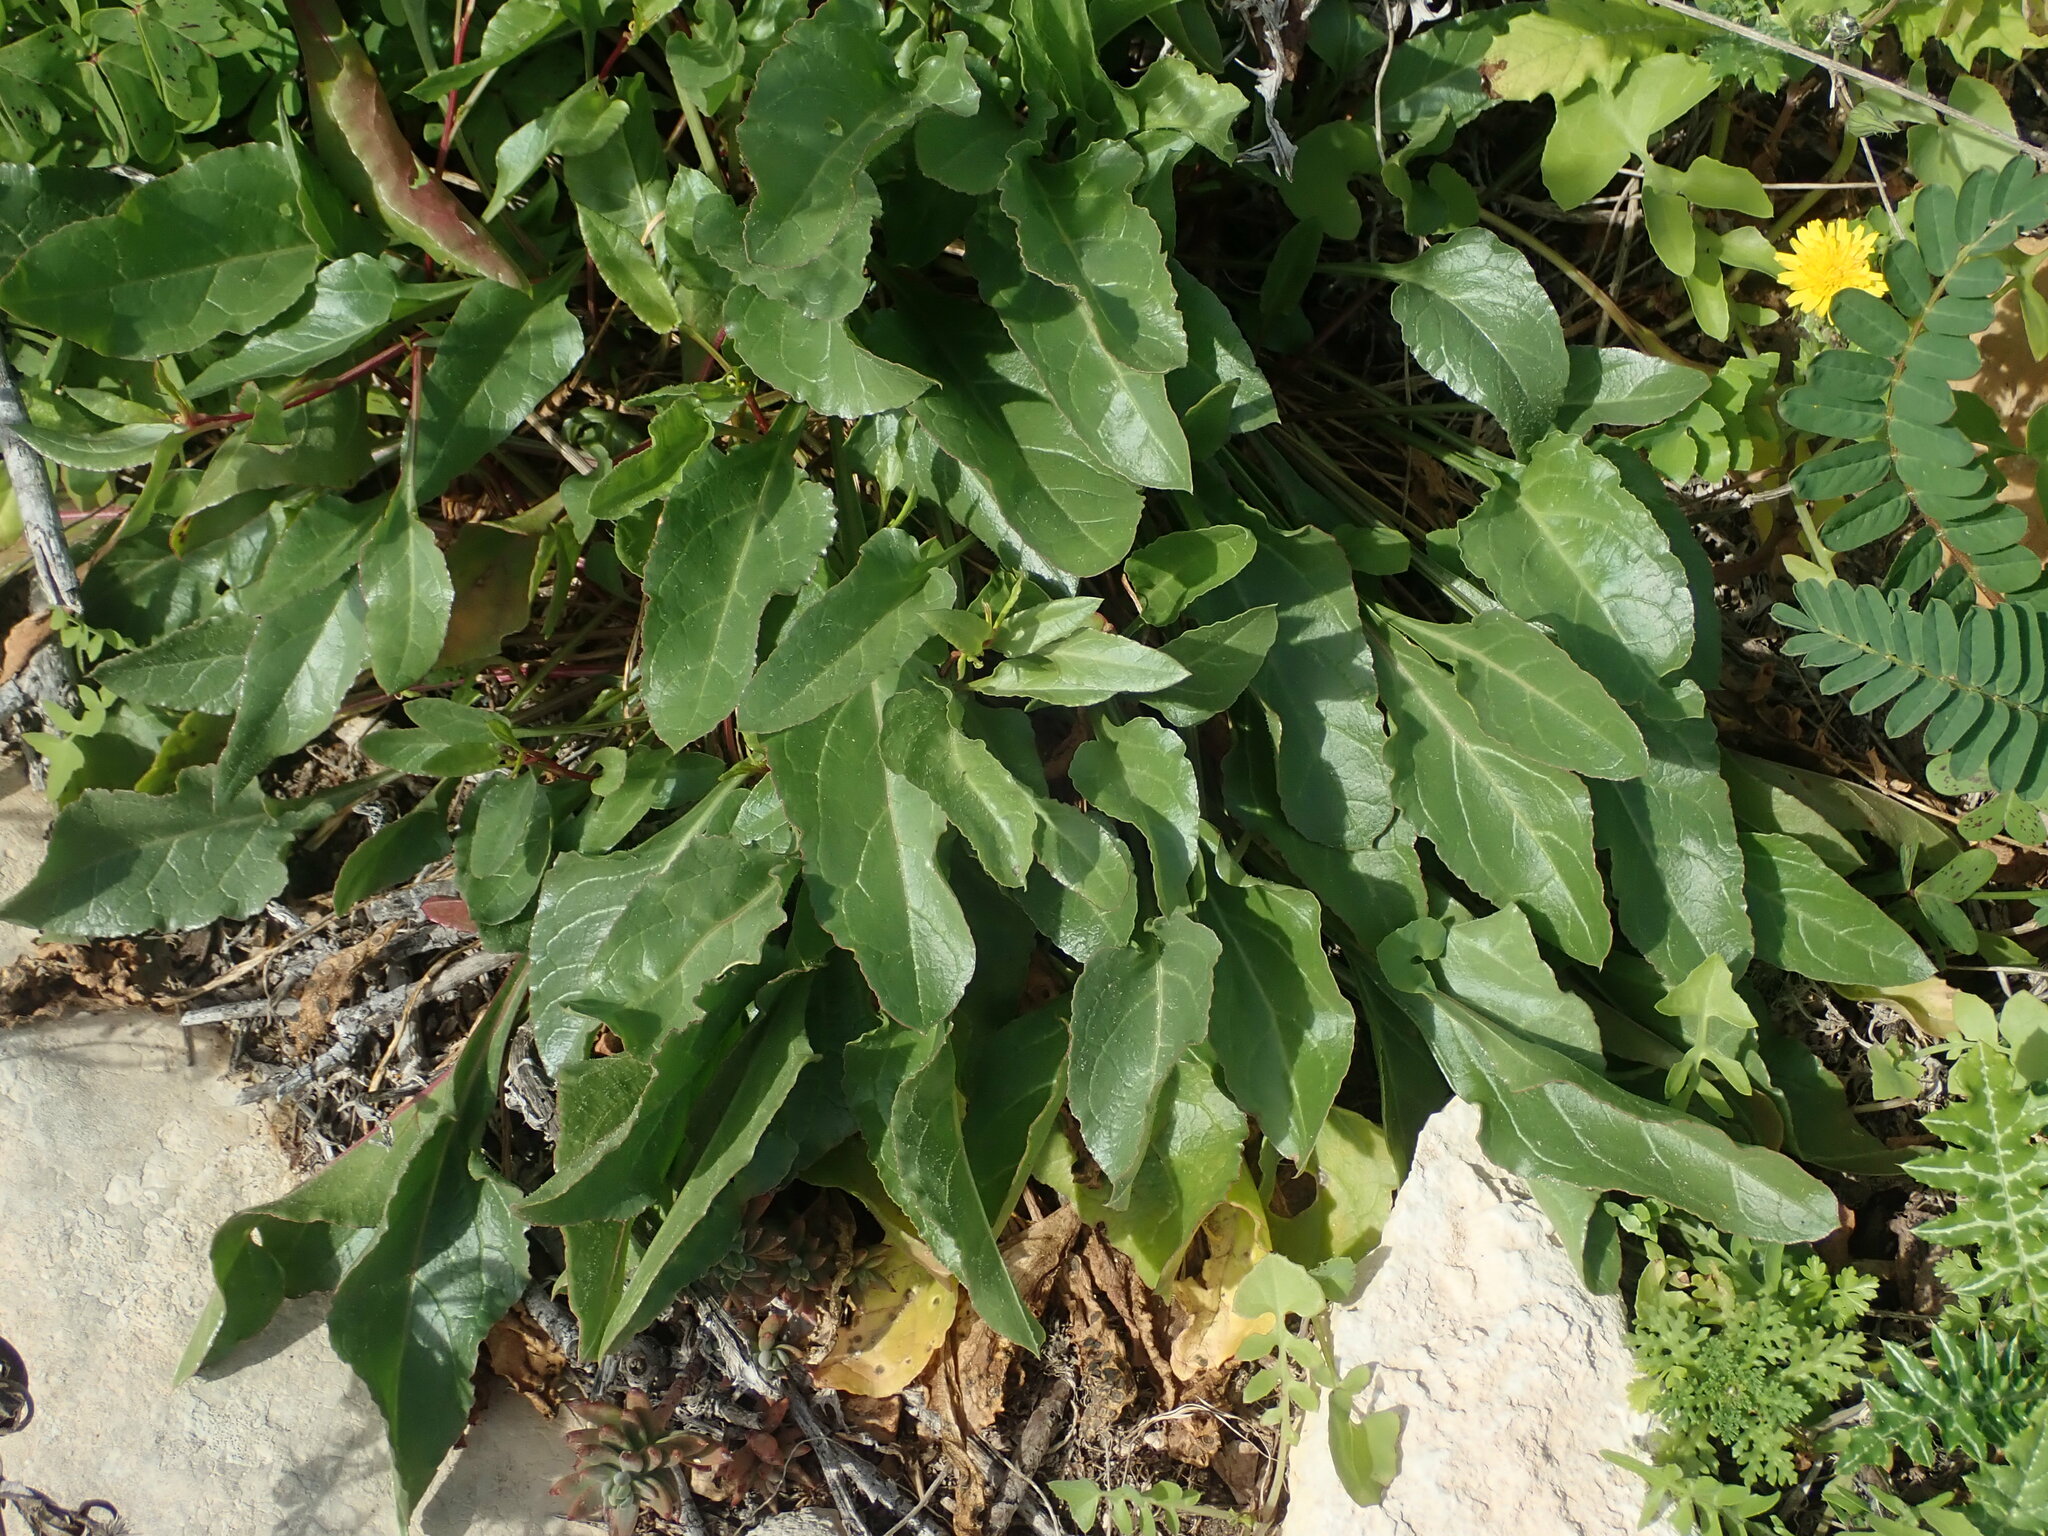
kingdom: Plantae
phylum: Tracheophyta
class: Magnoliopsida
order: Caryophyllales
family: Amaranthaceae
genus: Beta
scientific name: Beta vulgaris
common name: Beet
